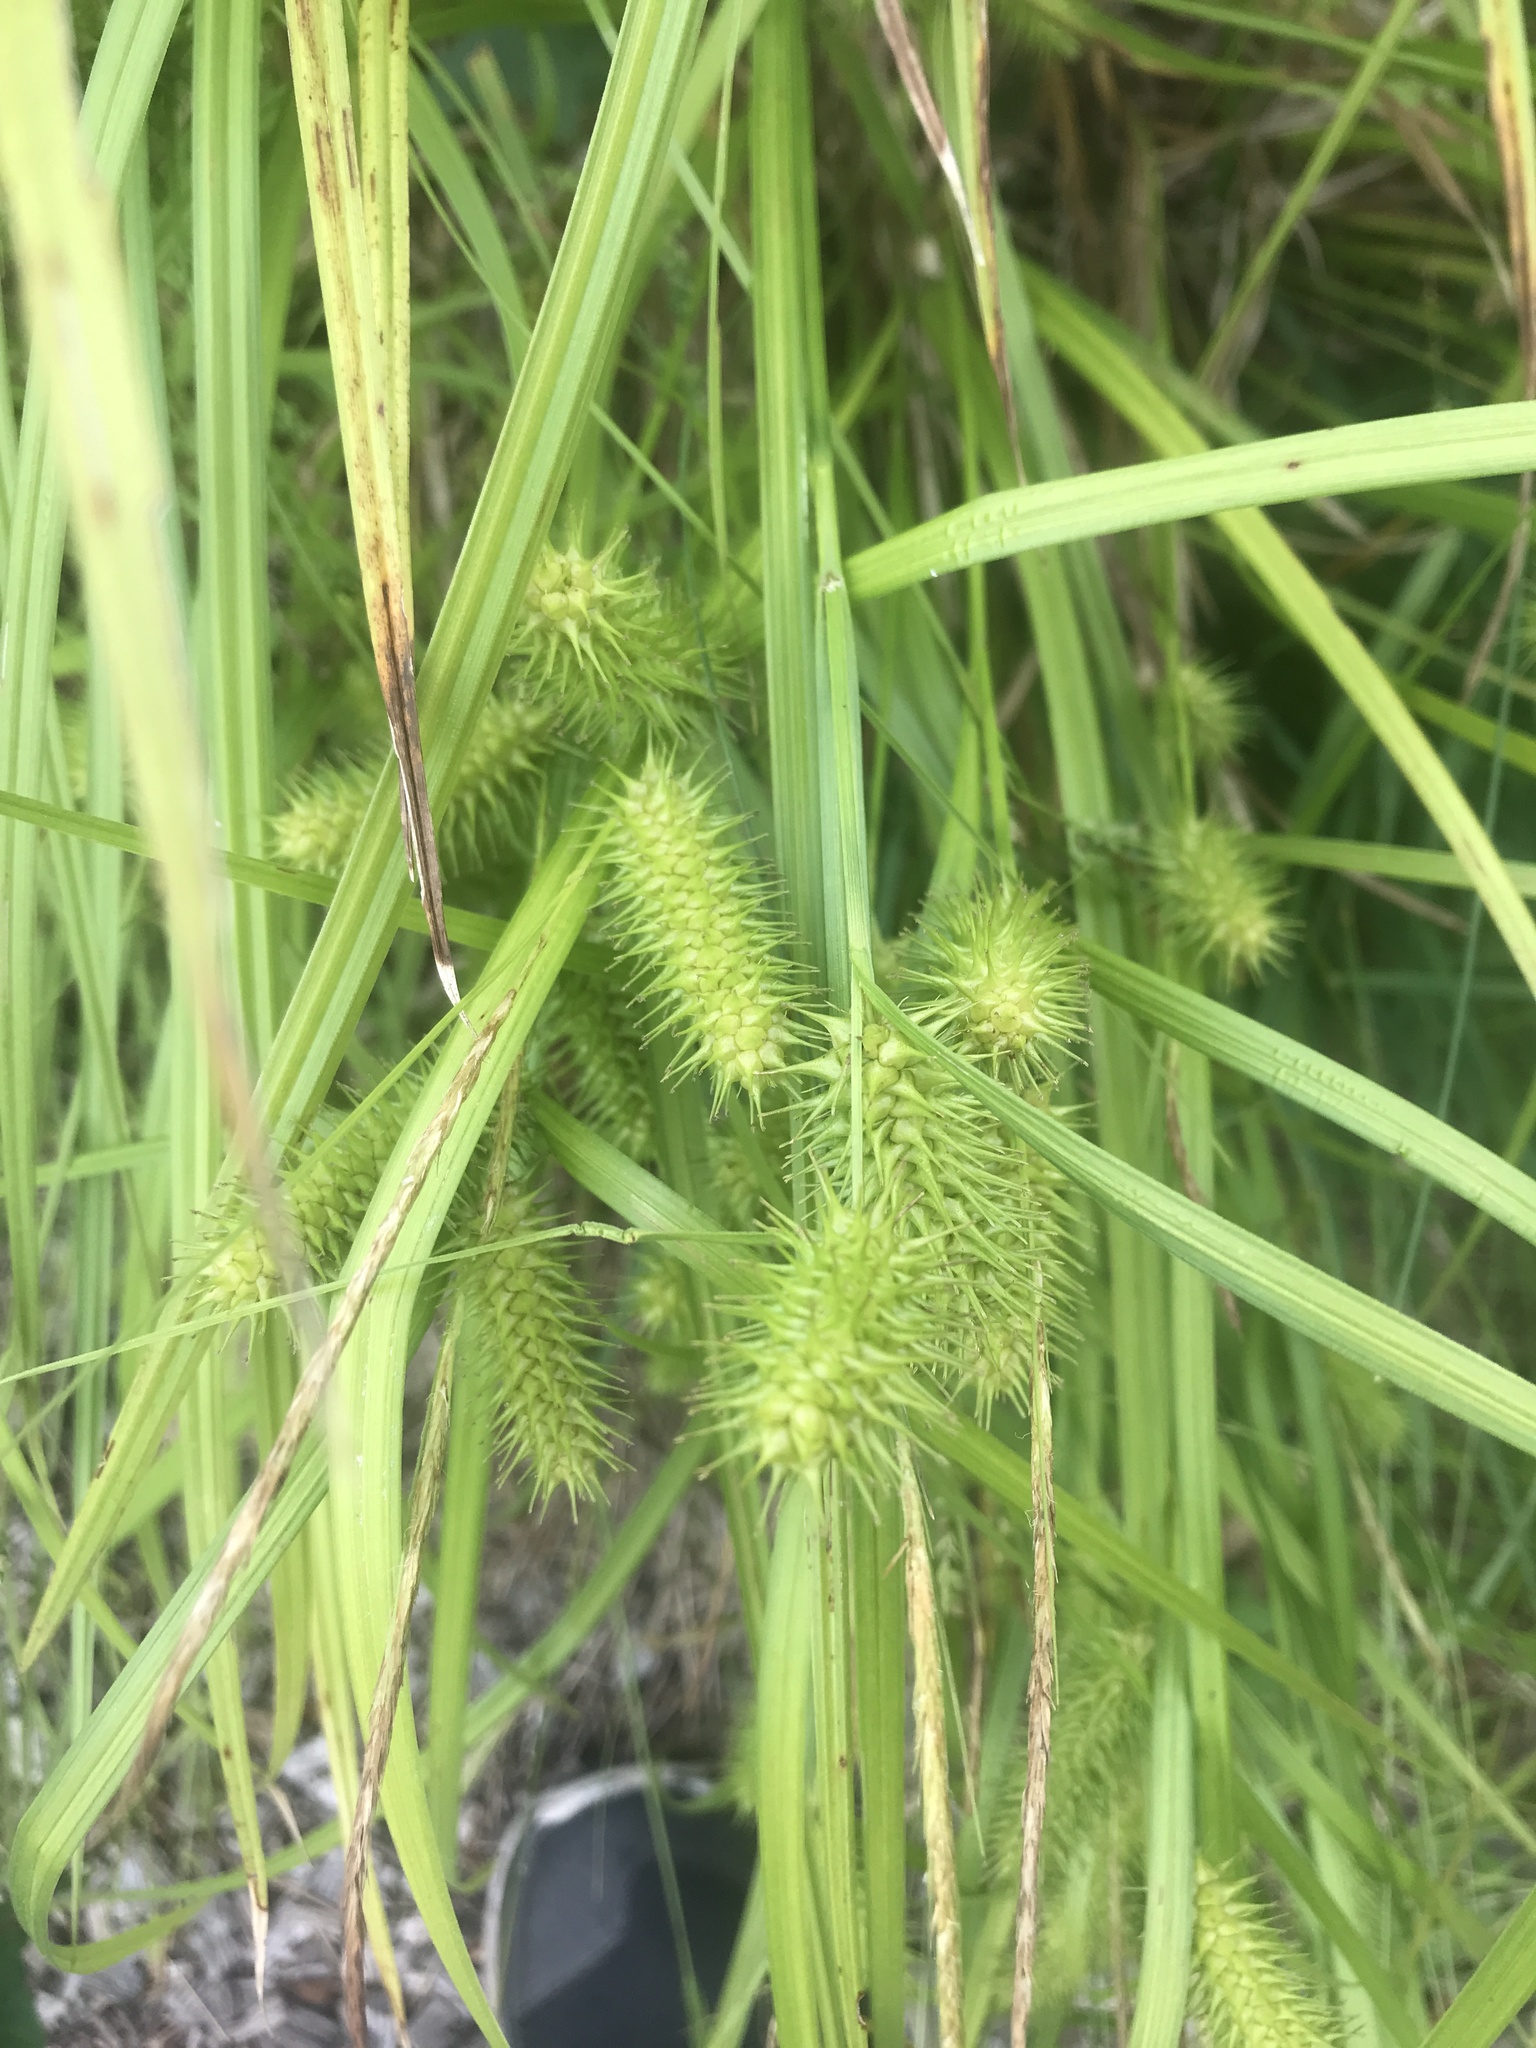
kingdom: Plantae
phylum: Tracheophyta
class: Liliopsida
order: Poales
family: Cyperaceae
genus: Carex
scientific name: Carex lurida
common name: Sallow sedge
